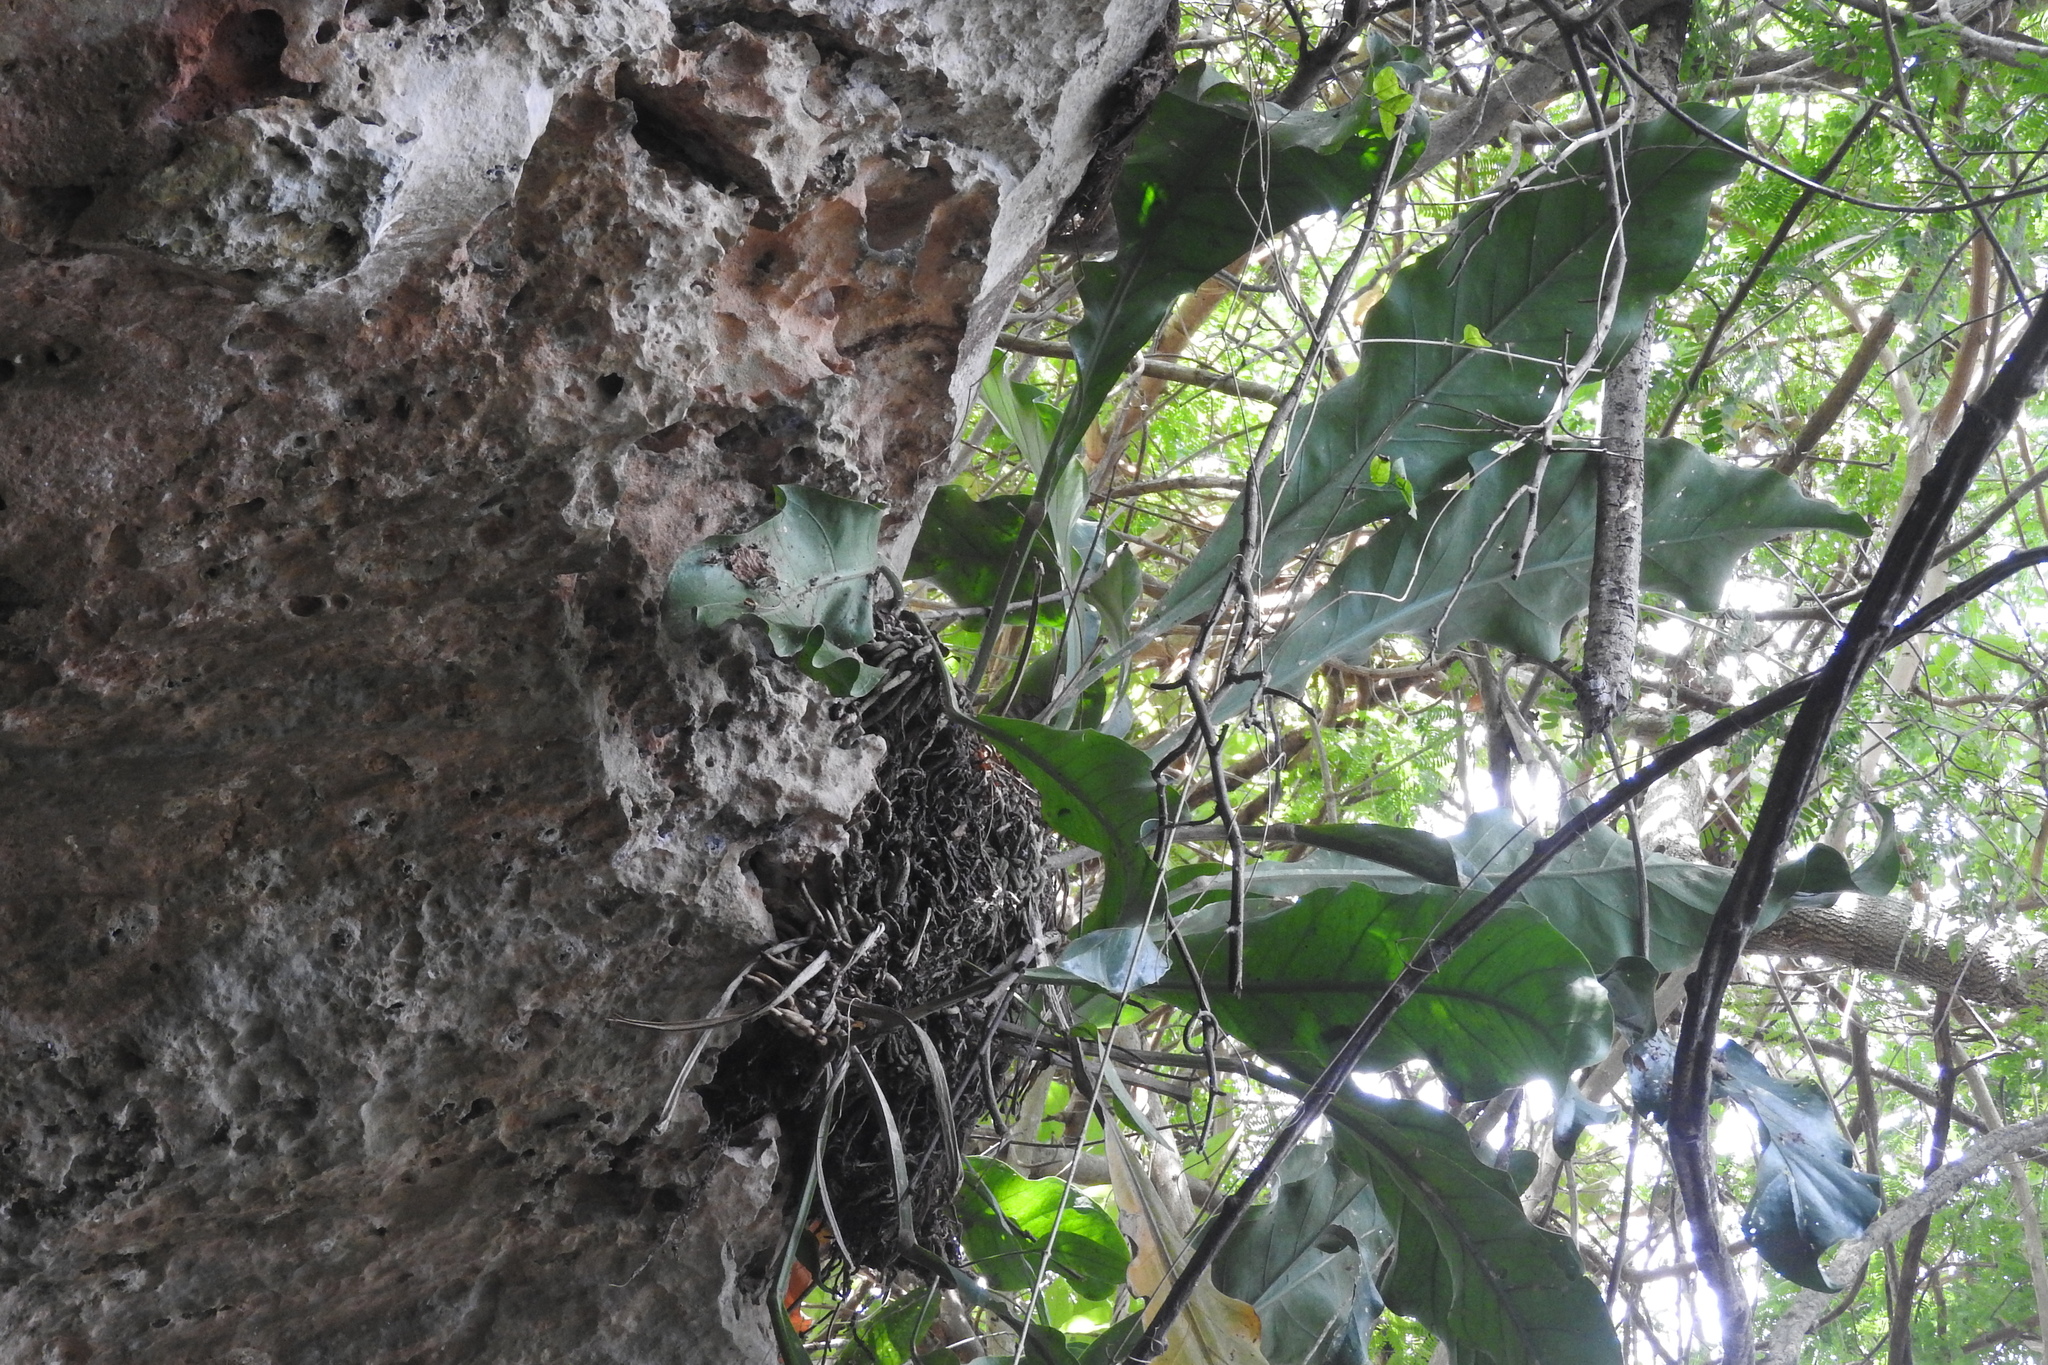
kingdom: Plantae
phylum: Tracheophyta
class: Liliopsida
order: Alismatales
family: Araceae
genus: Anthurium
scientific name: Anthurium schlechtendalii
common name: Laceleaf
